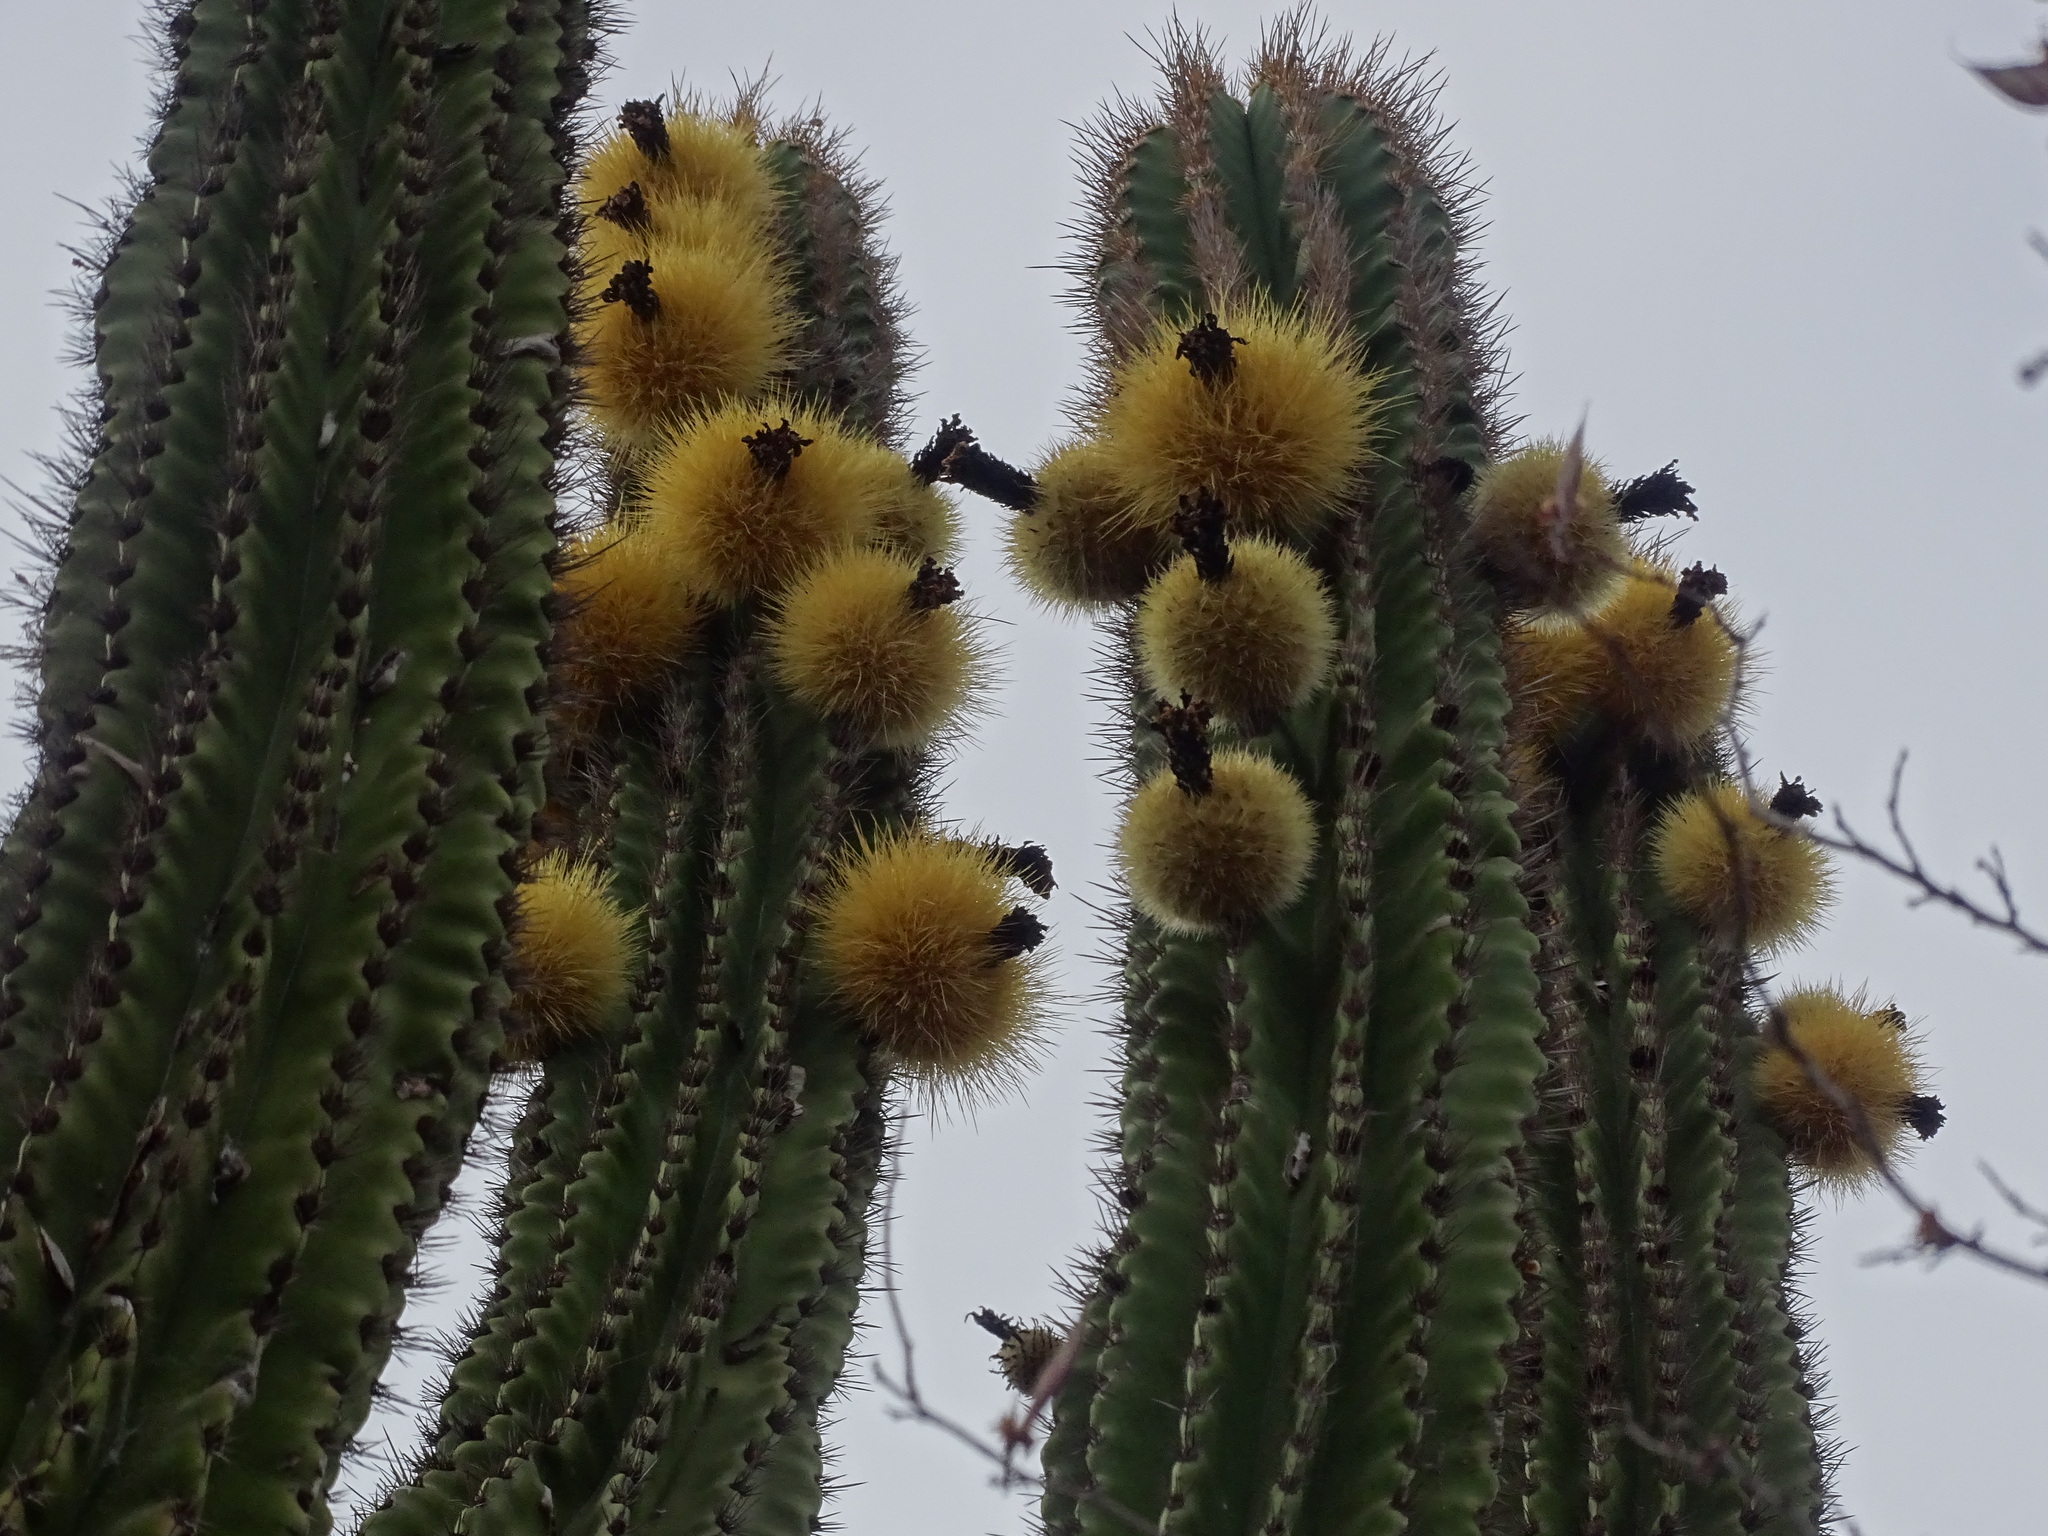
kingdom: Plantae
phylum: Tracheophyta
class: Magnoliopsida
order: Caryophyllales
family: Cactaceae
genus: Pachycereus
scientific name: Pachycereus pecten-aboriginum
